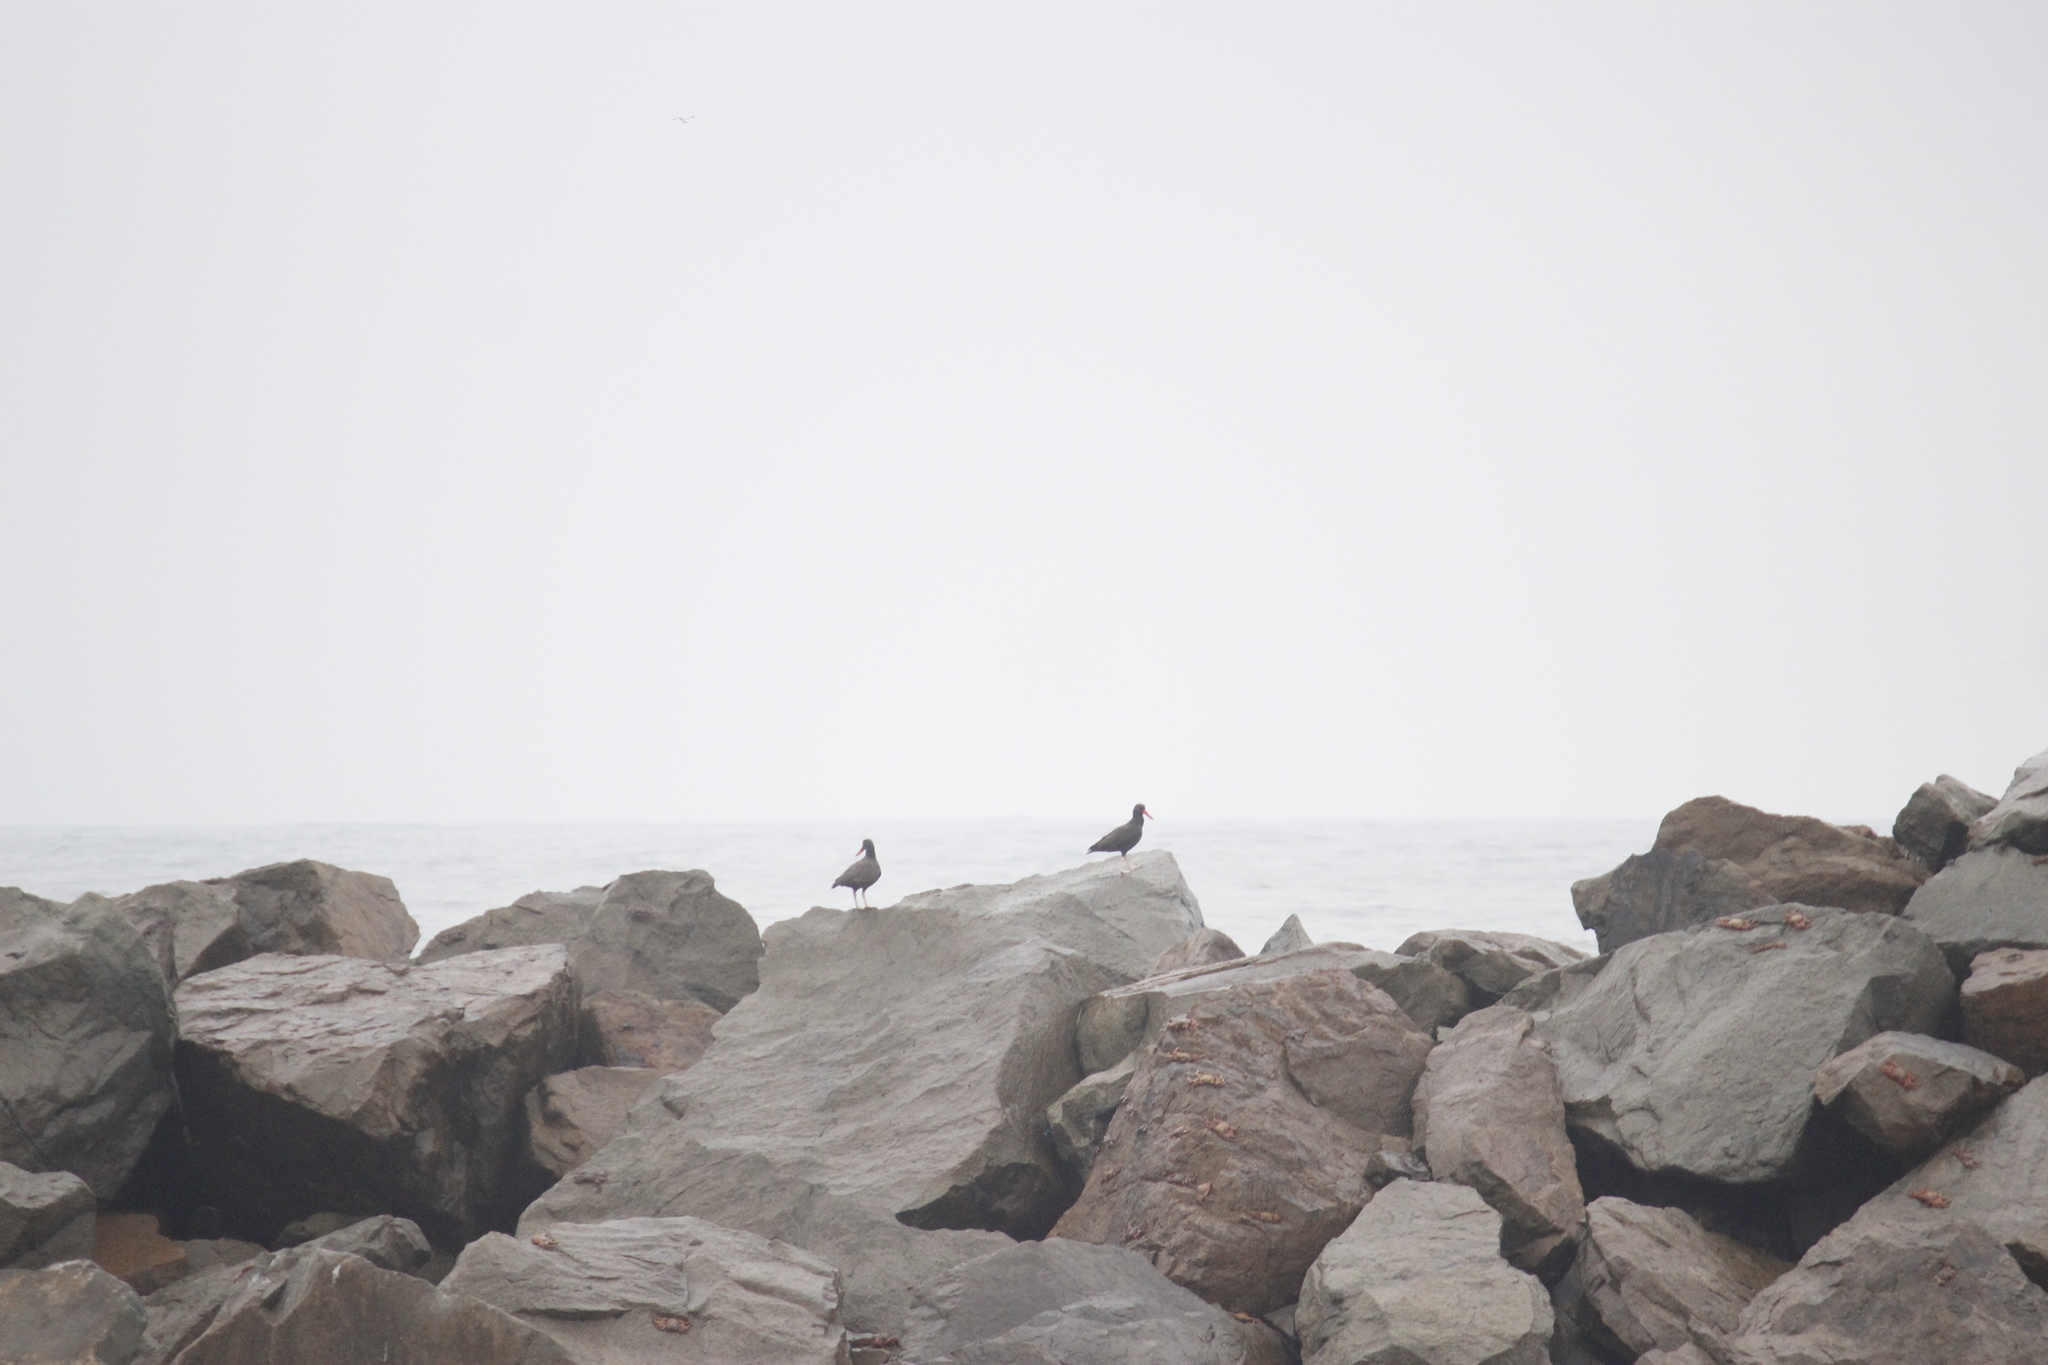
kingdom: Animalia
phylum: Chordata
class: Aves
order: Charadriiformes
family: Haematopodidae
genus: Haematopus
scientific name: Haematopus ater
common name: Blackish oystercatcher
